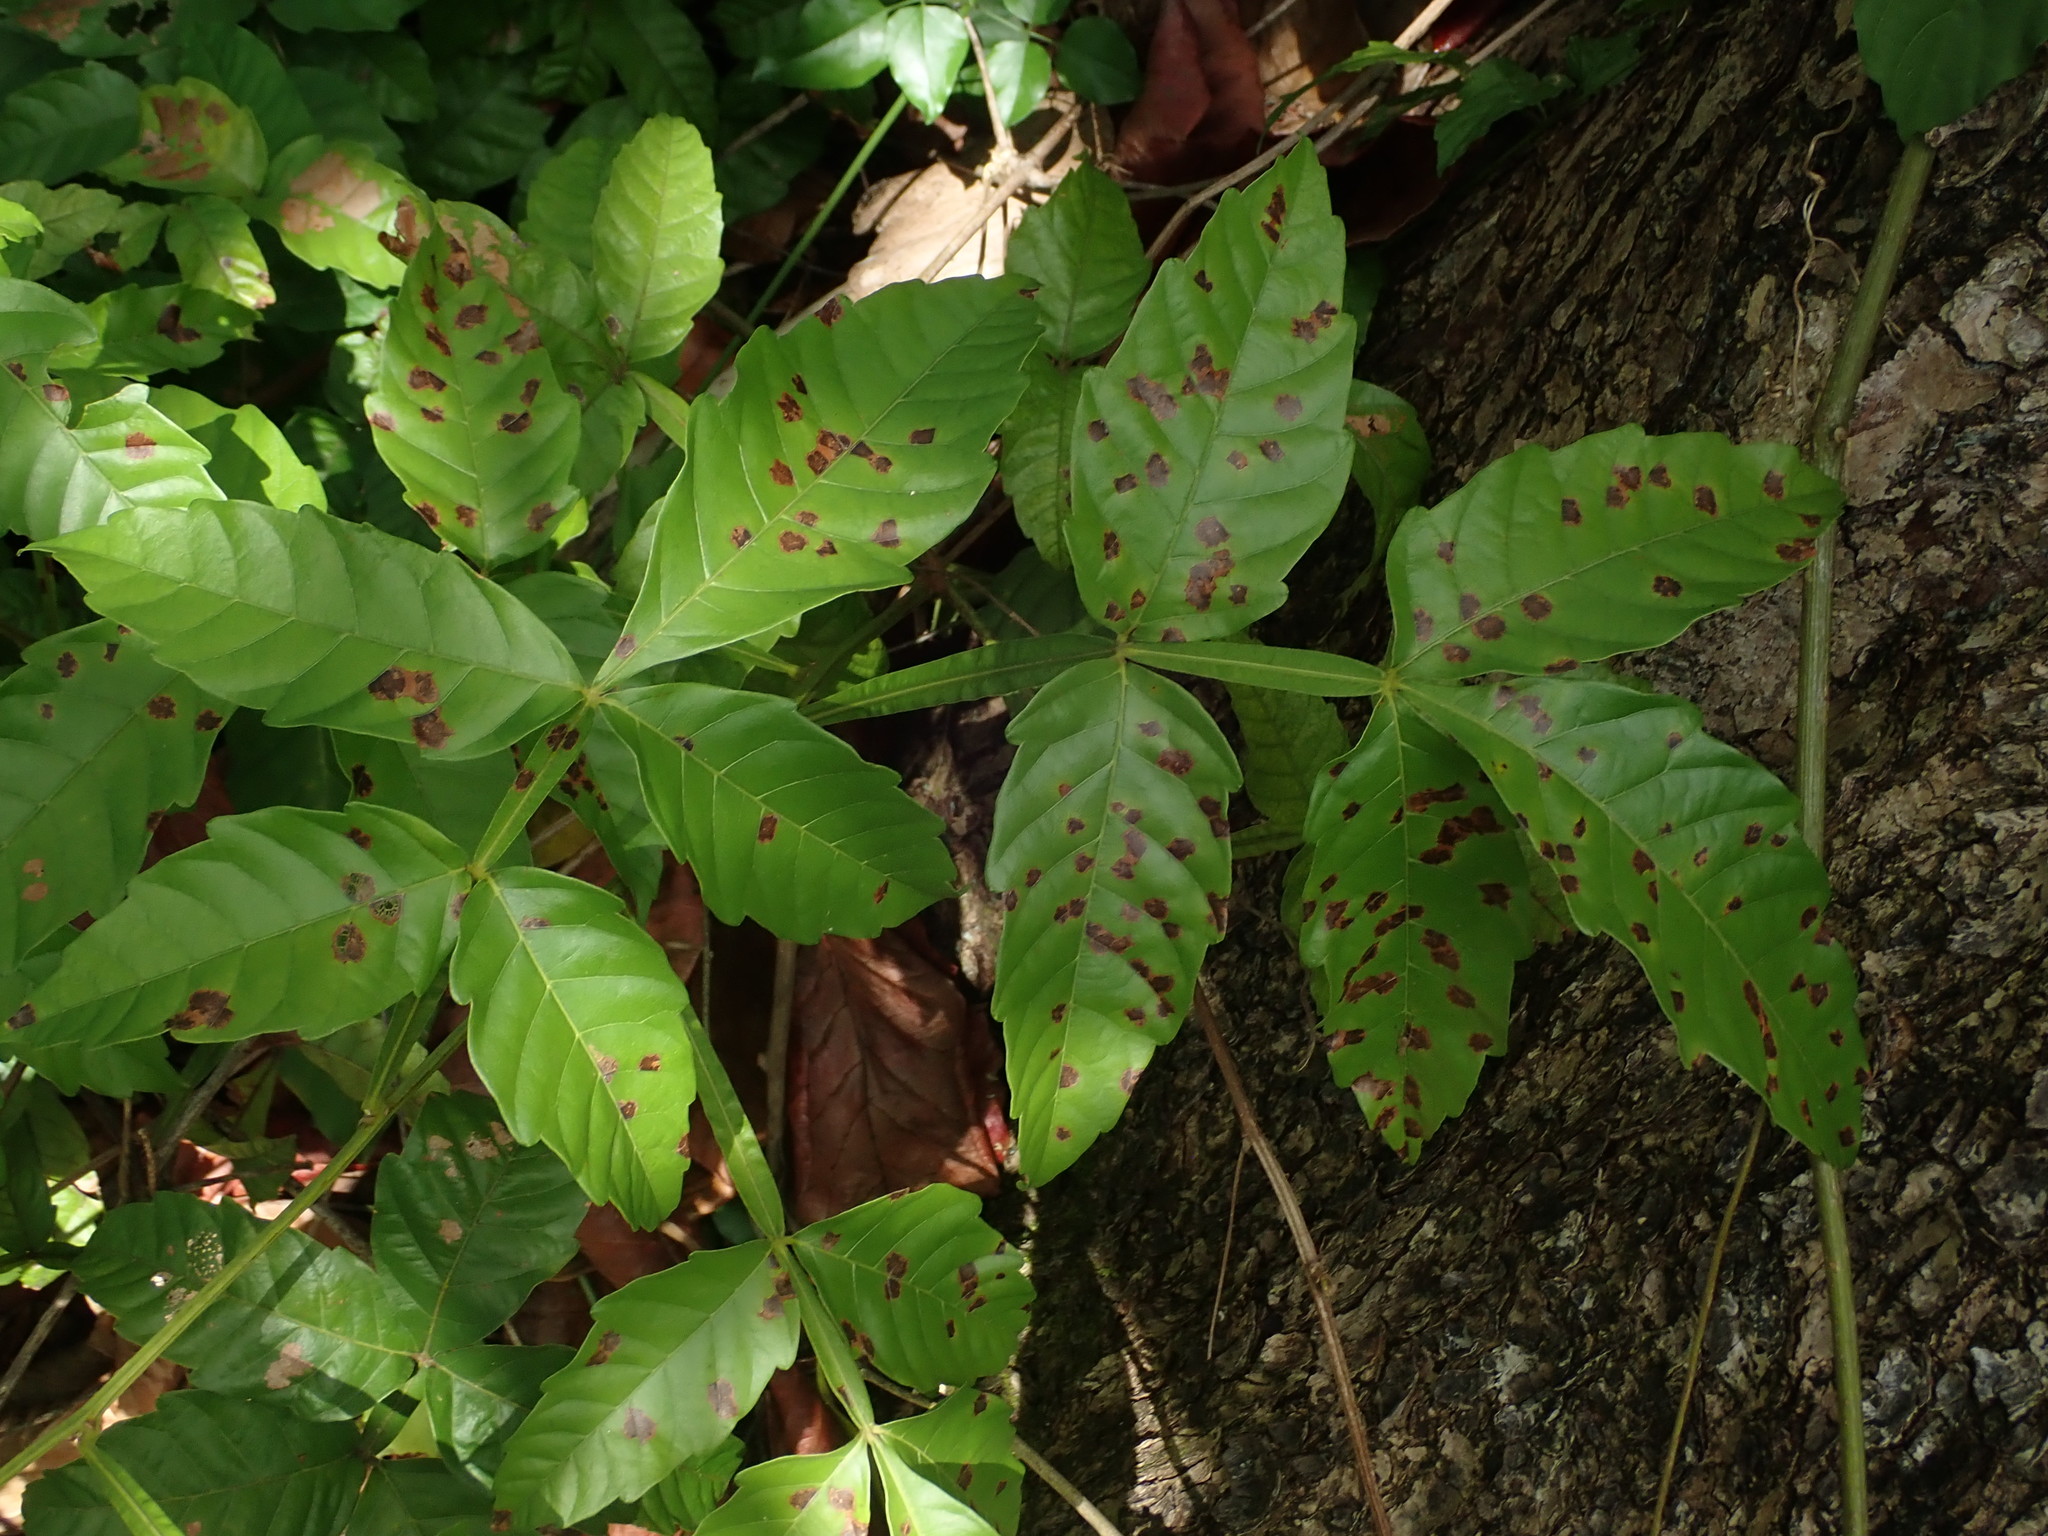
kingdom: Plantae
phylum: Tracheophyta
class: Magnoliopsida
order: Sapindales
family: Sapindaceae
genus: Paullinia
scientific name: Paullinia pinnata
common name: Barbasco
